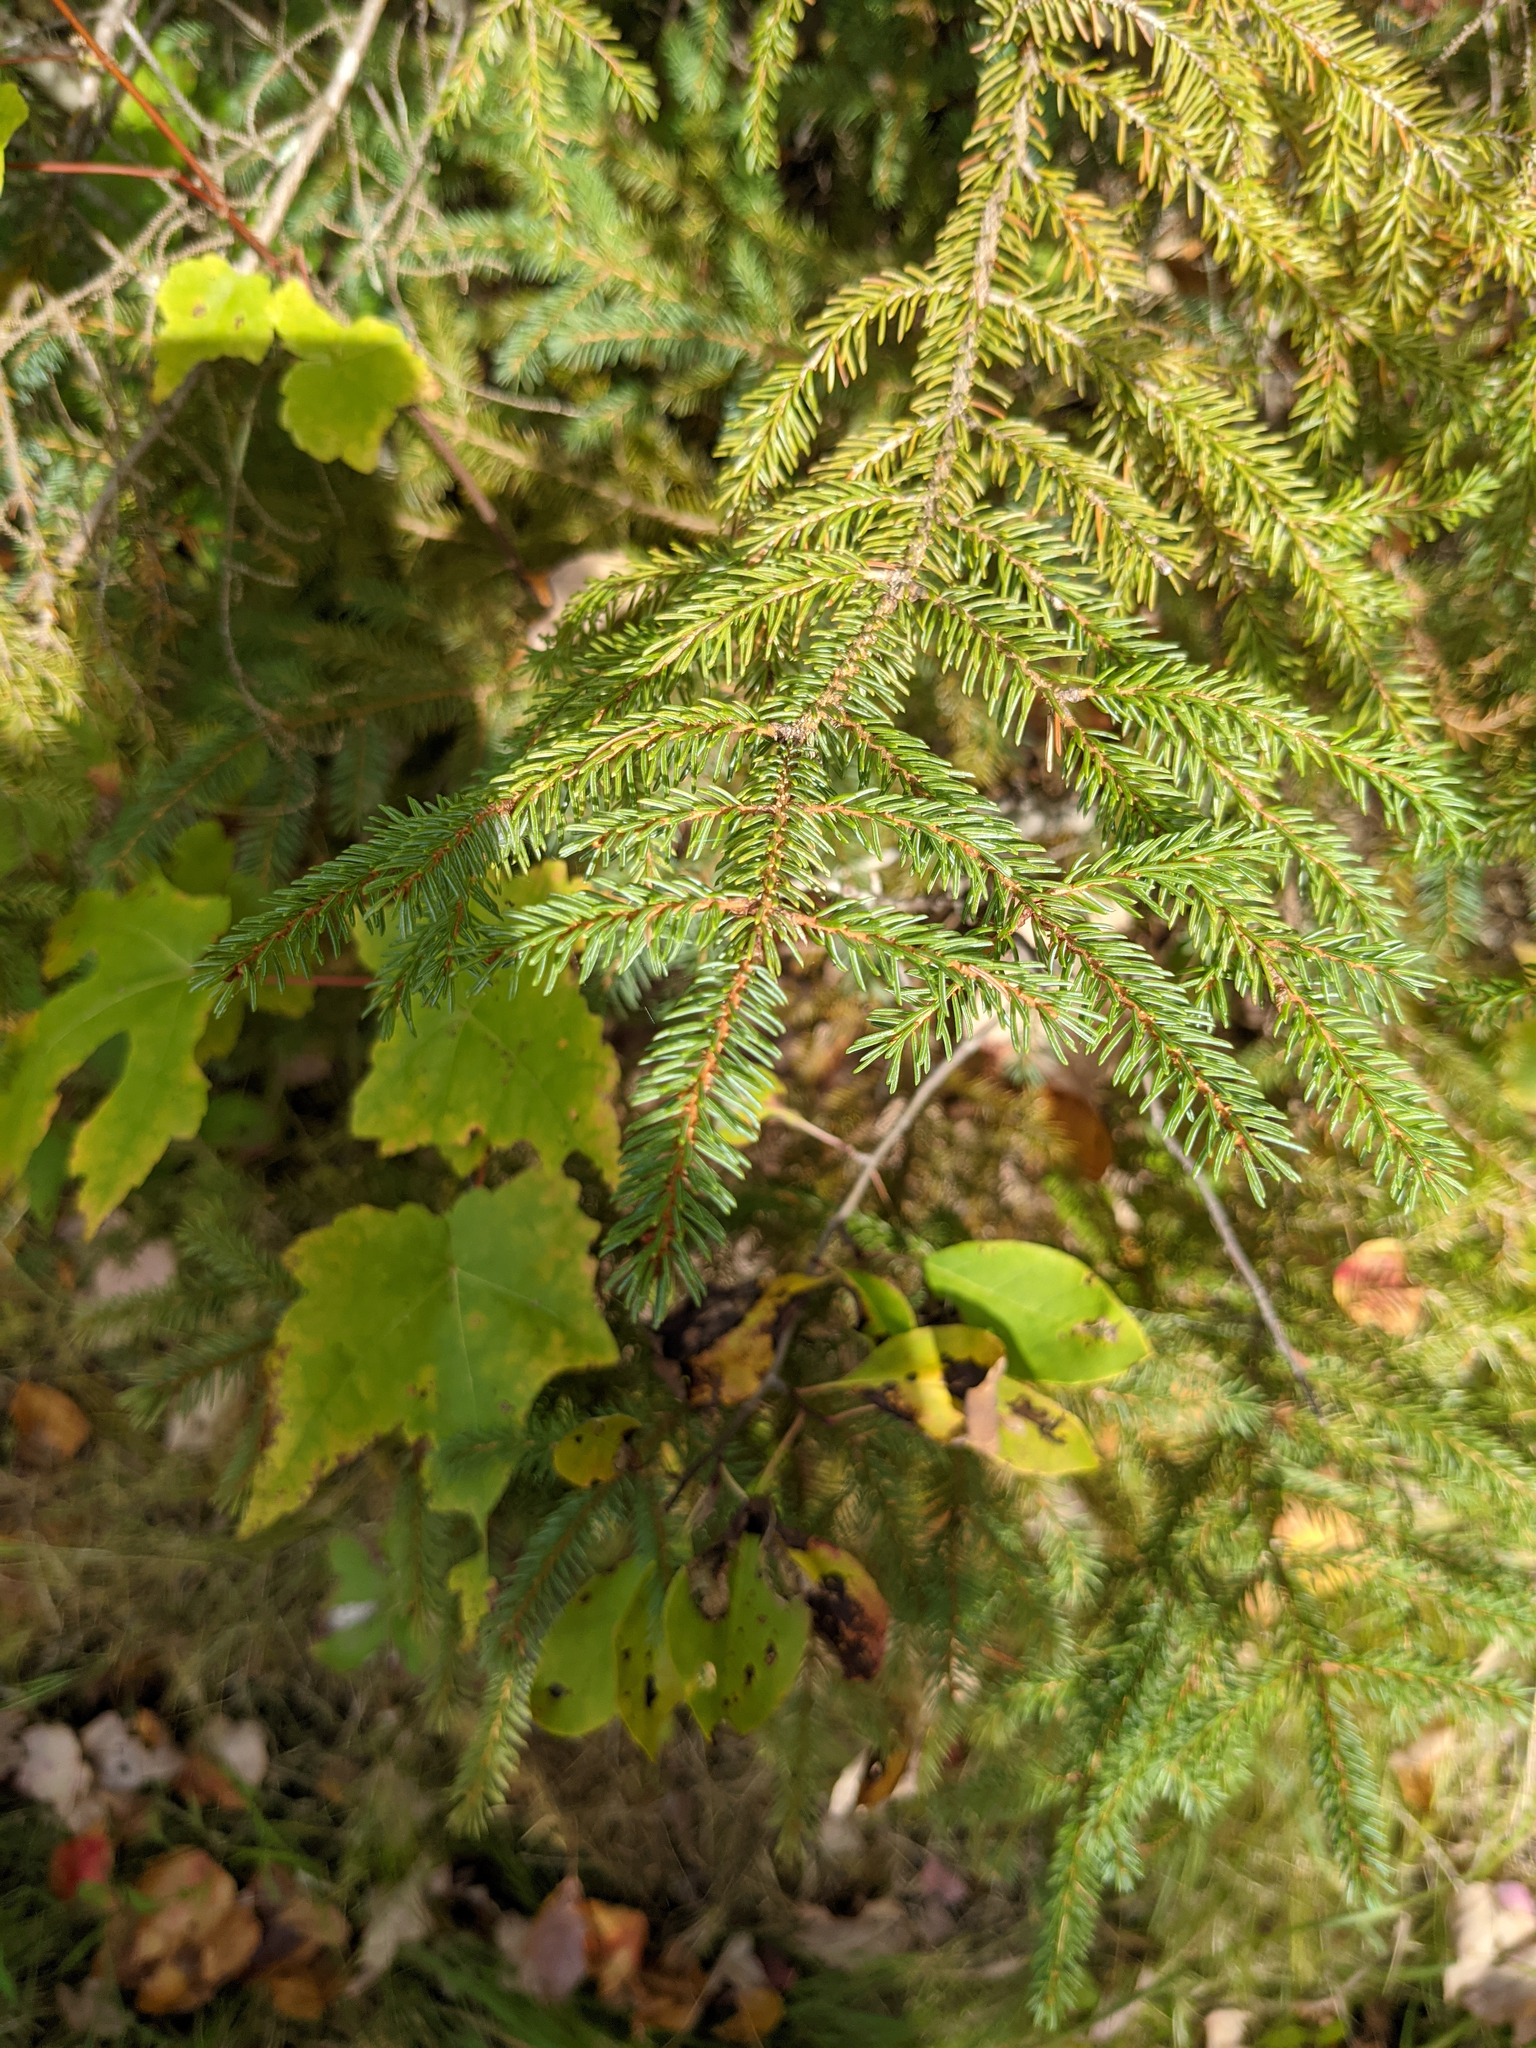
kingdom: Plantae
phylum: Tracheophyta
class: Pinopsida
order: Pinales
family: Pinaceae
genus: Picea
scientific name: Picea rubens
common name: Red spruce
